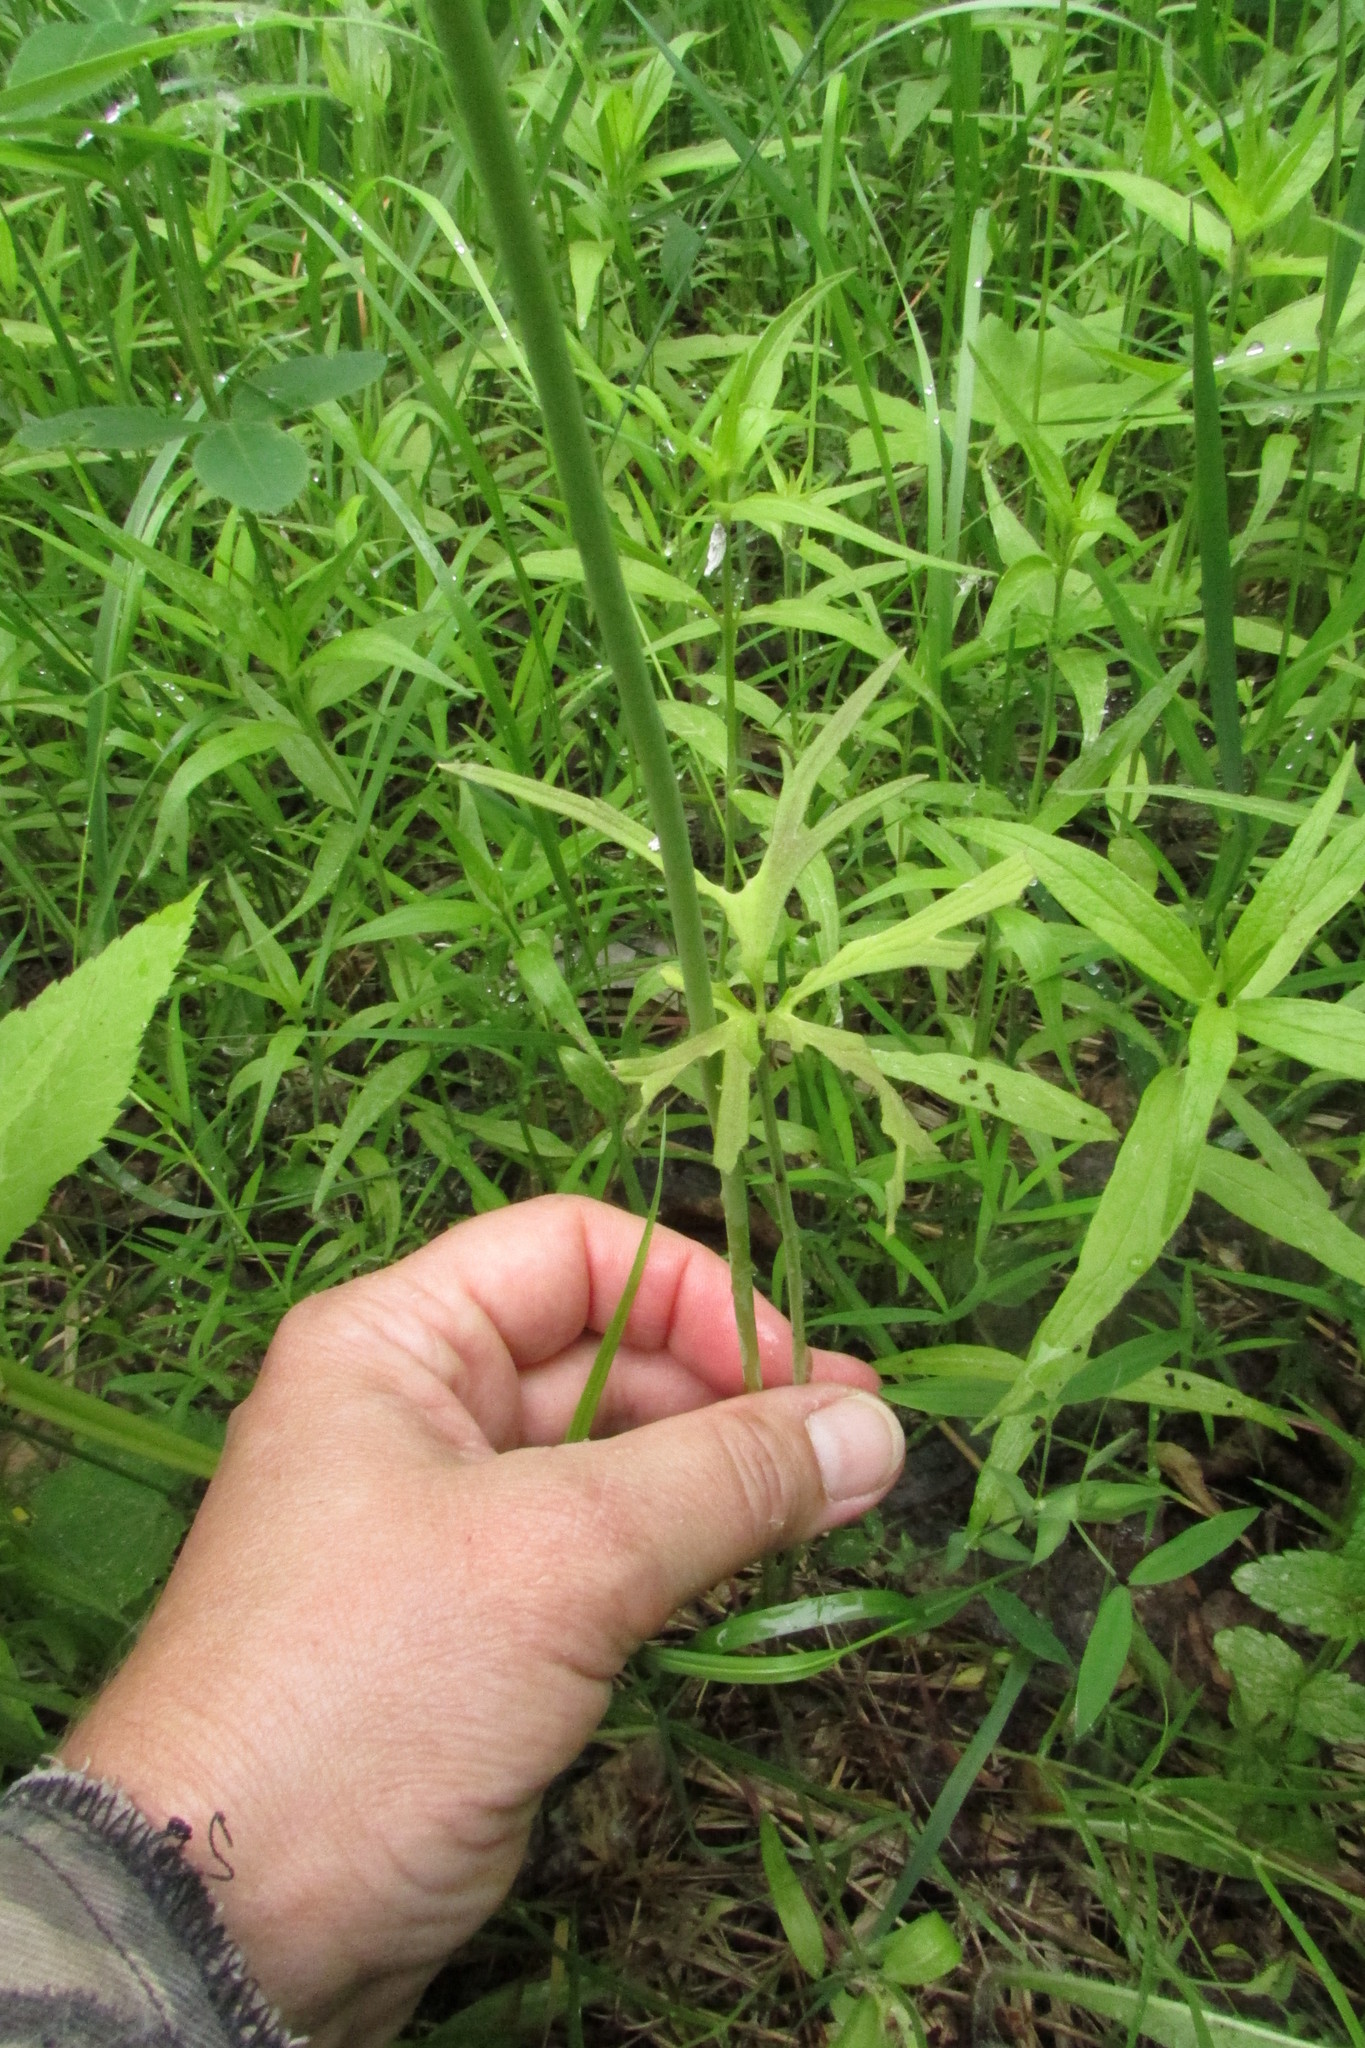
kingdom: Plantae
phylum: Tracheophyta
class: Magnoliopsida
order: Ranunculales
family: Ranunculaceae
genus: Ranunculus
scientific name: Ranunculus acris
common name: Meadow buttercup
